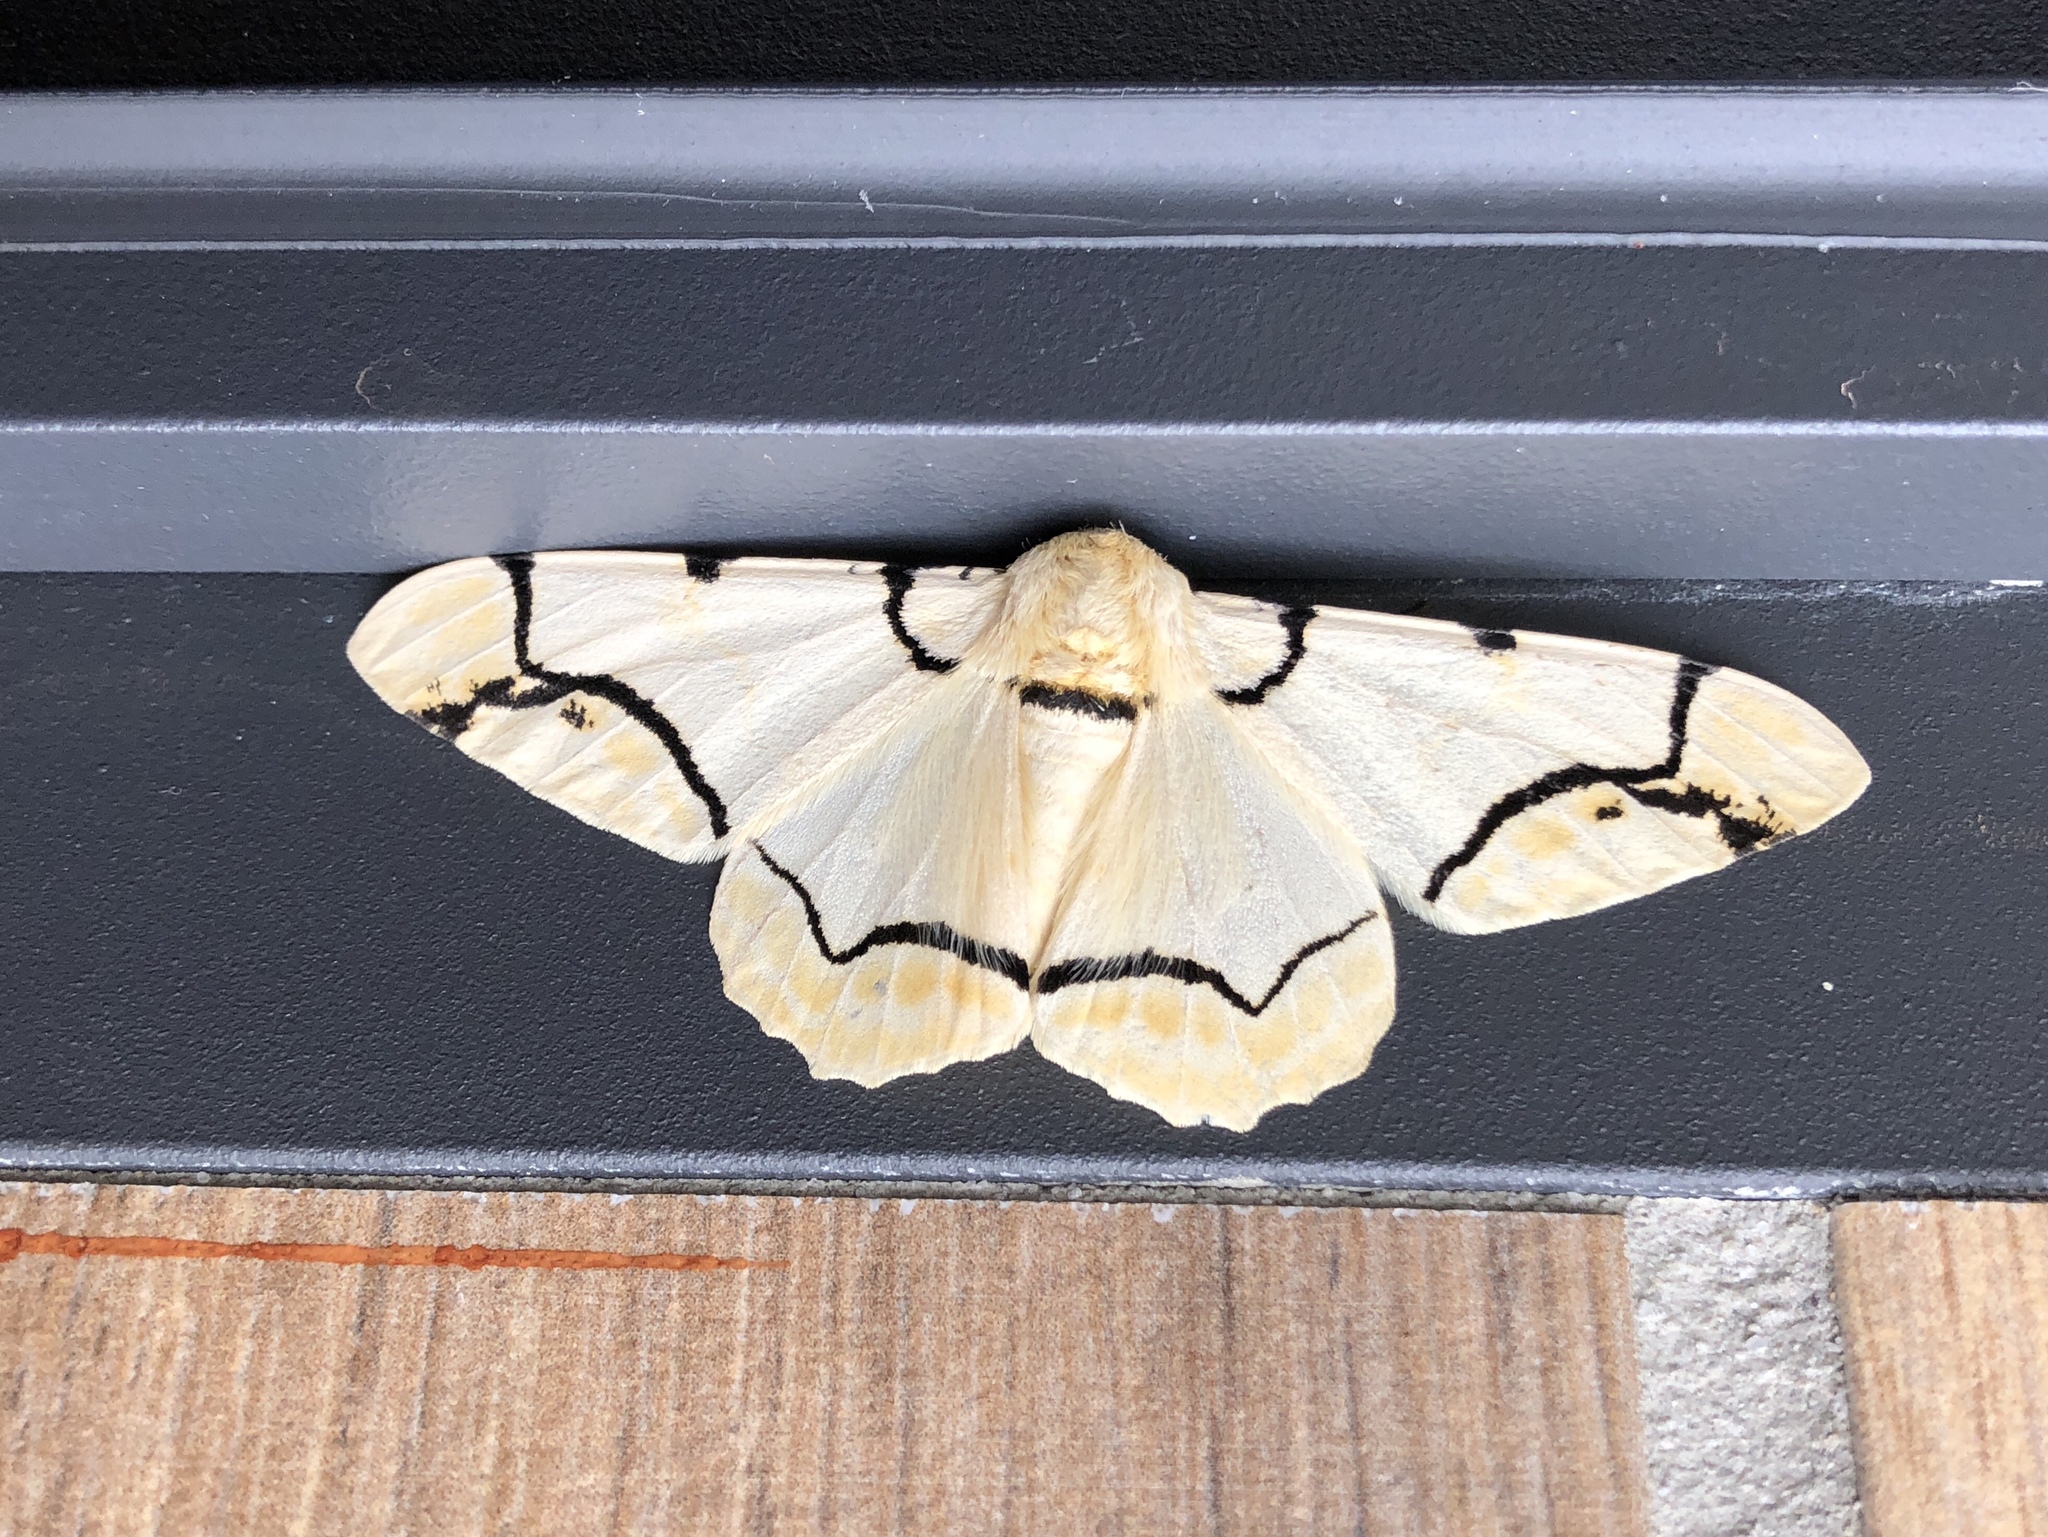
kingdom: Animalia
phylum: Arthropoda
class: Insecta
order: Lepidoptera
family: Geometridae
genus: Biston
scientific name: Biston perclara
